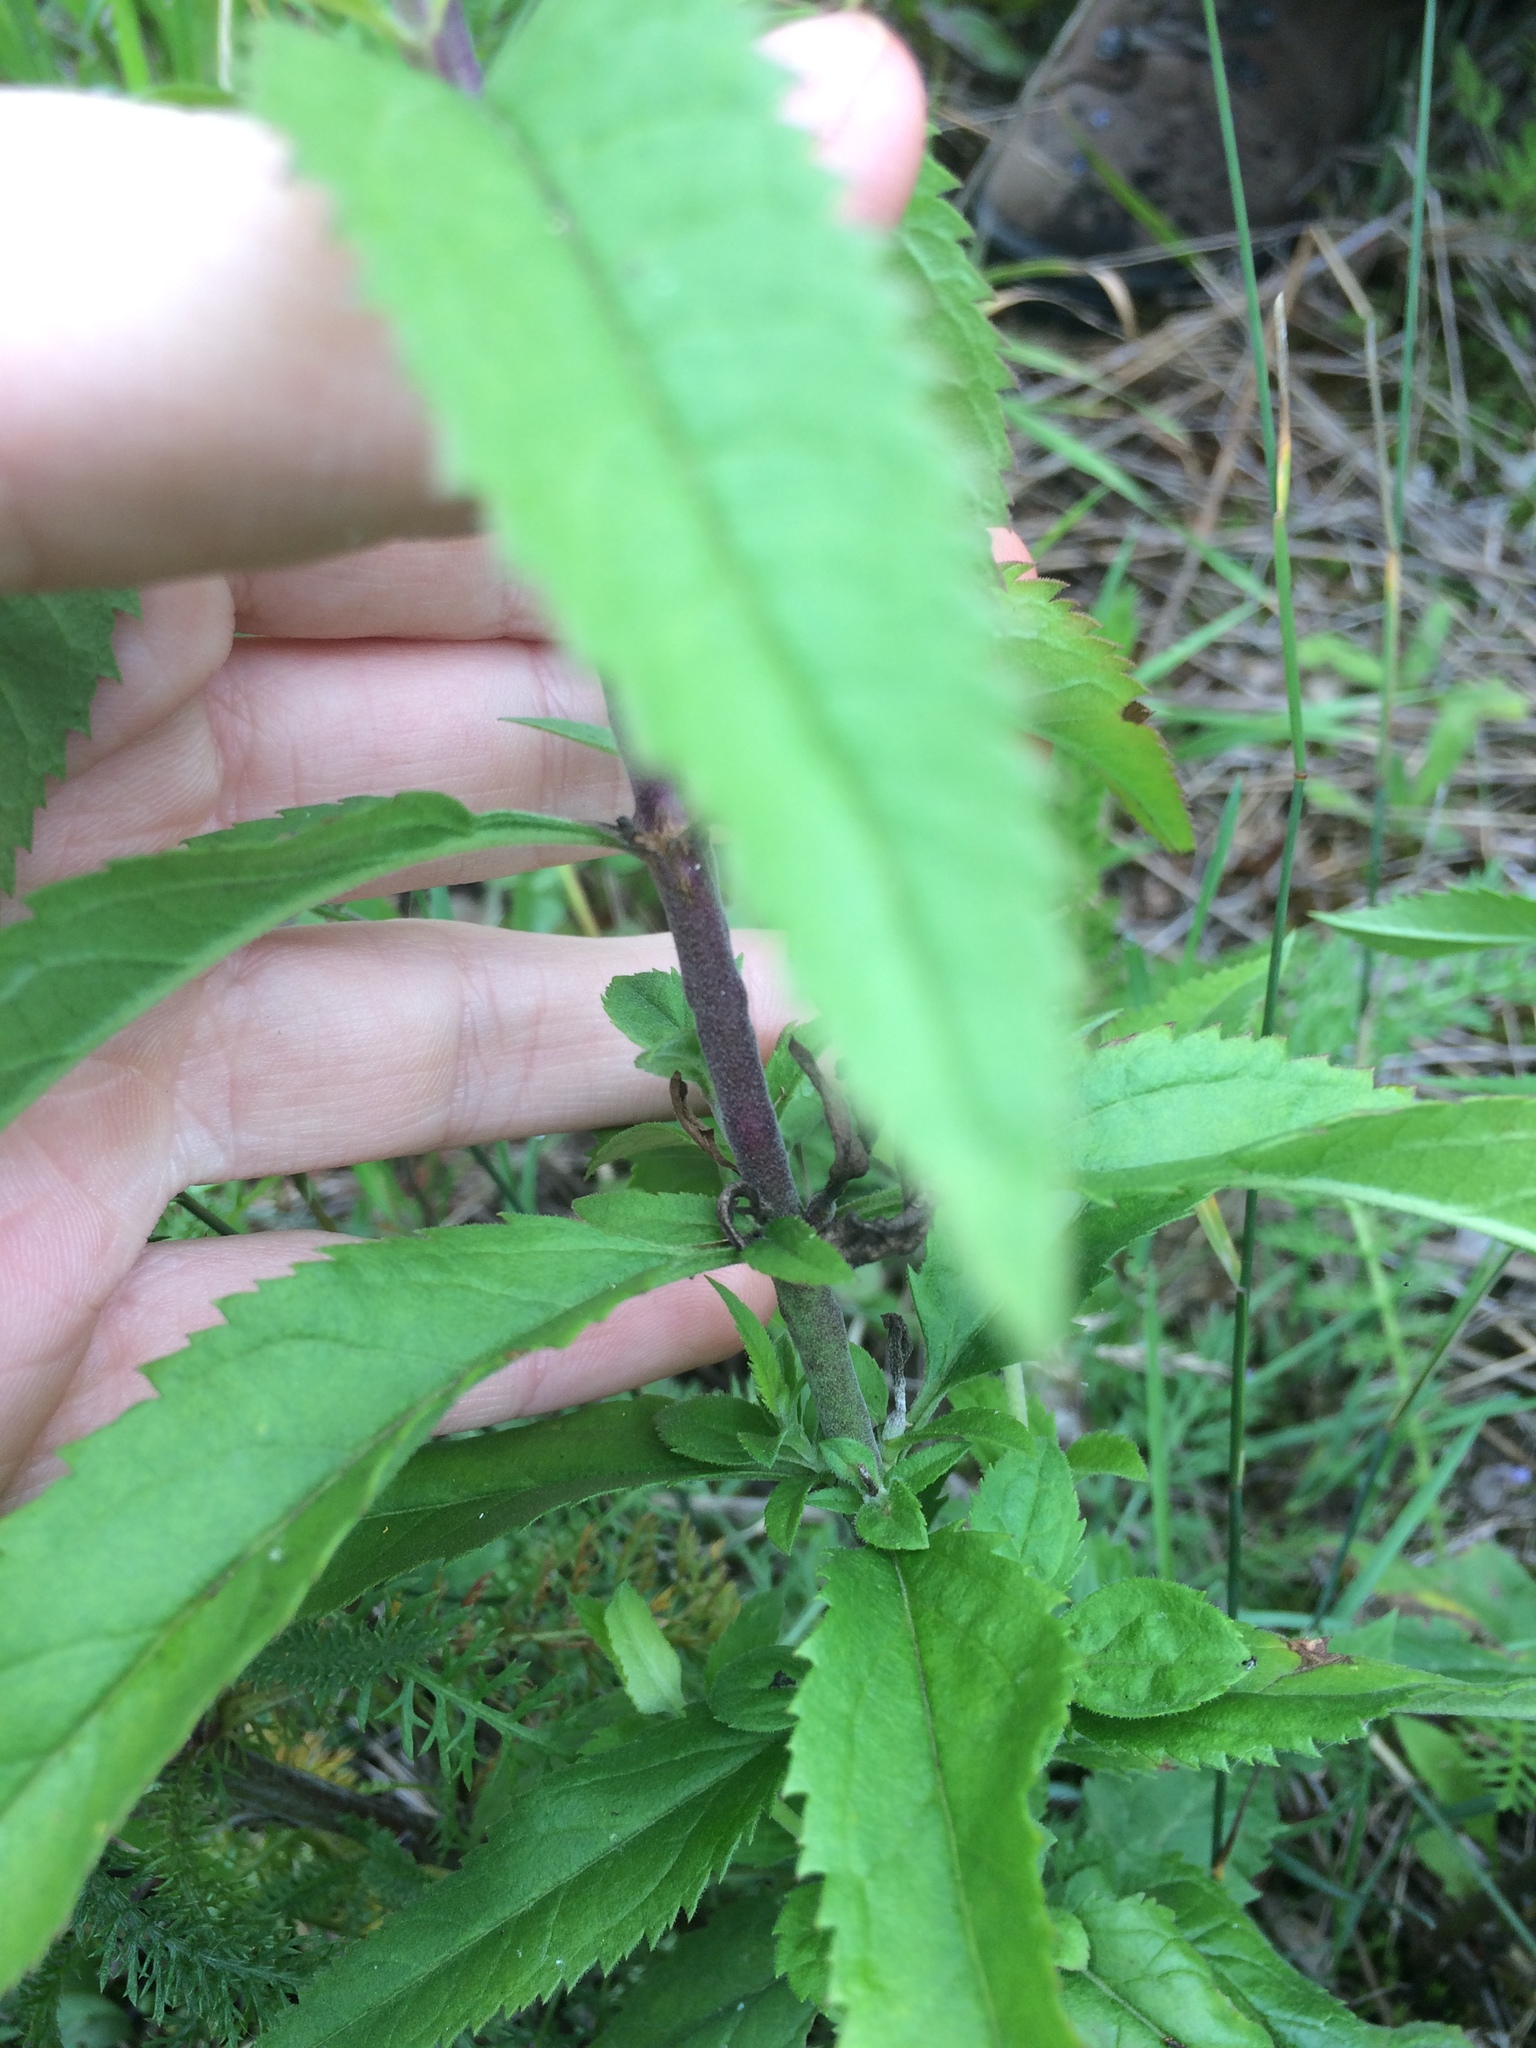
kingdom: Plantae
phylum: Tracheophyta
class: Magnoliopsida
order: Lamiales
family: Plantaginaceae
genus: Veronica
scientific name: Veronica longifolia
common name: Garden speedwell
